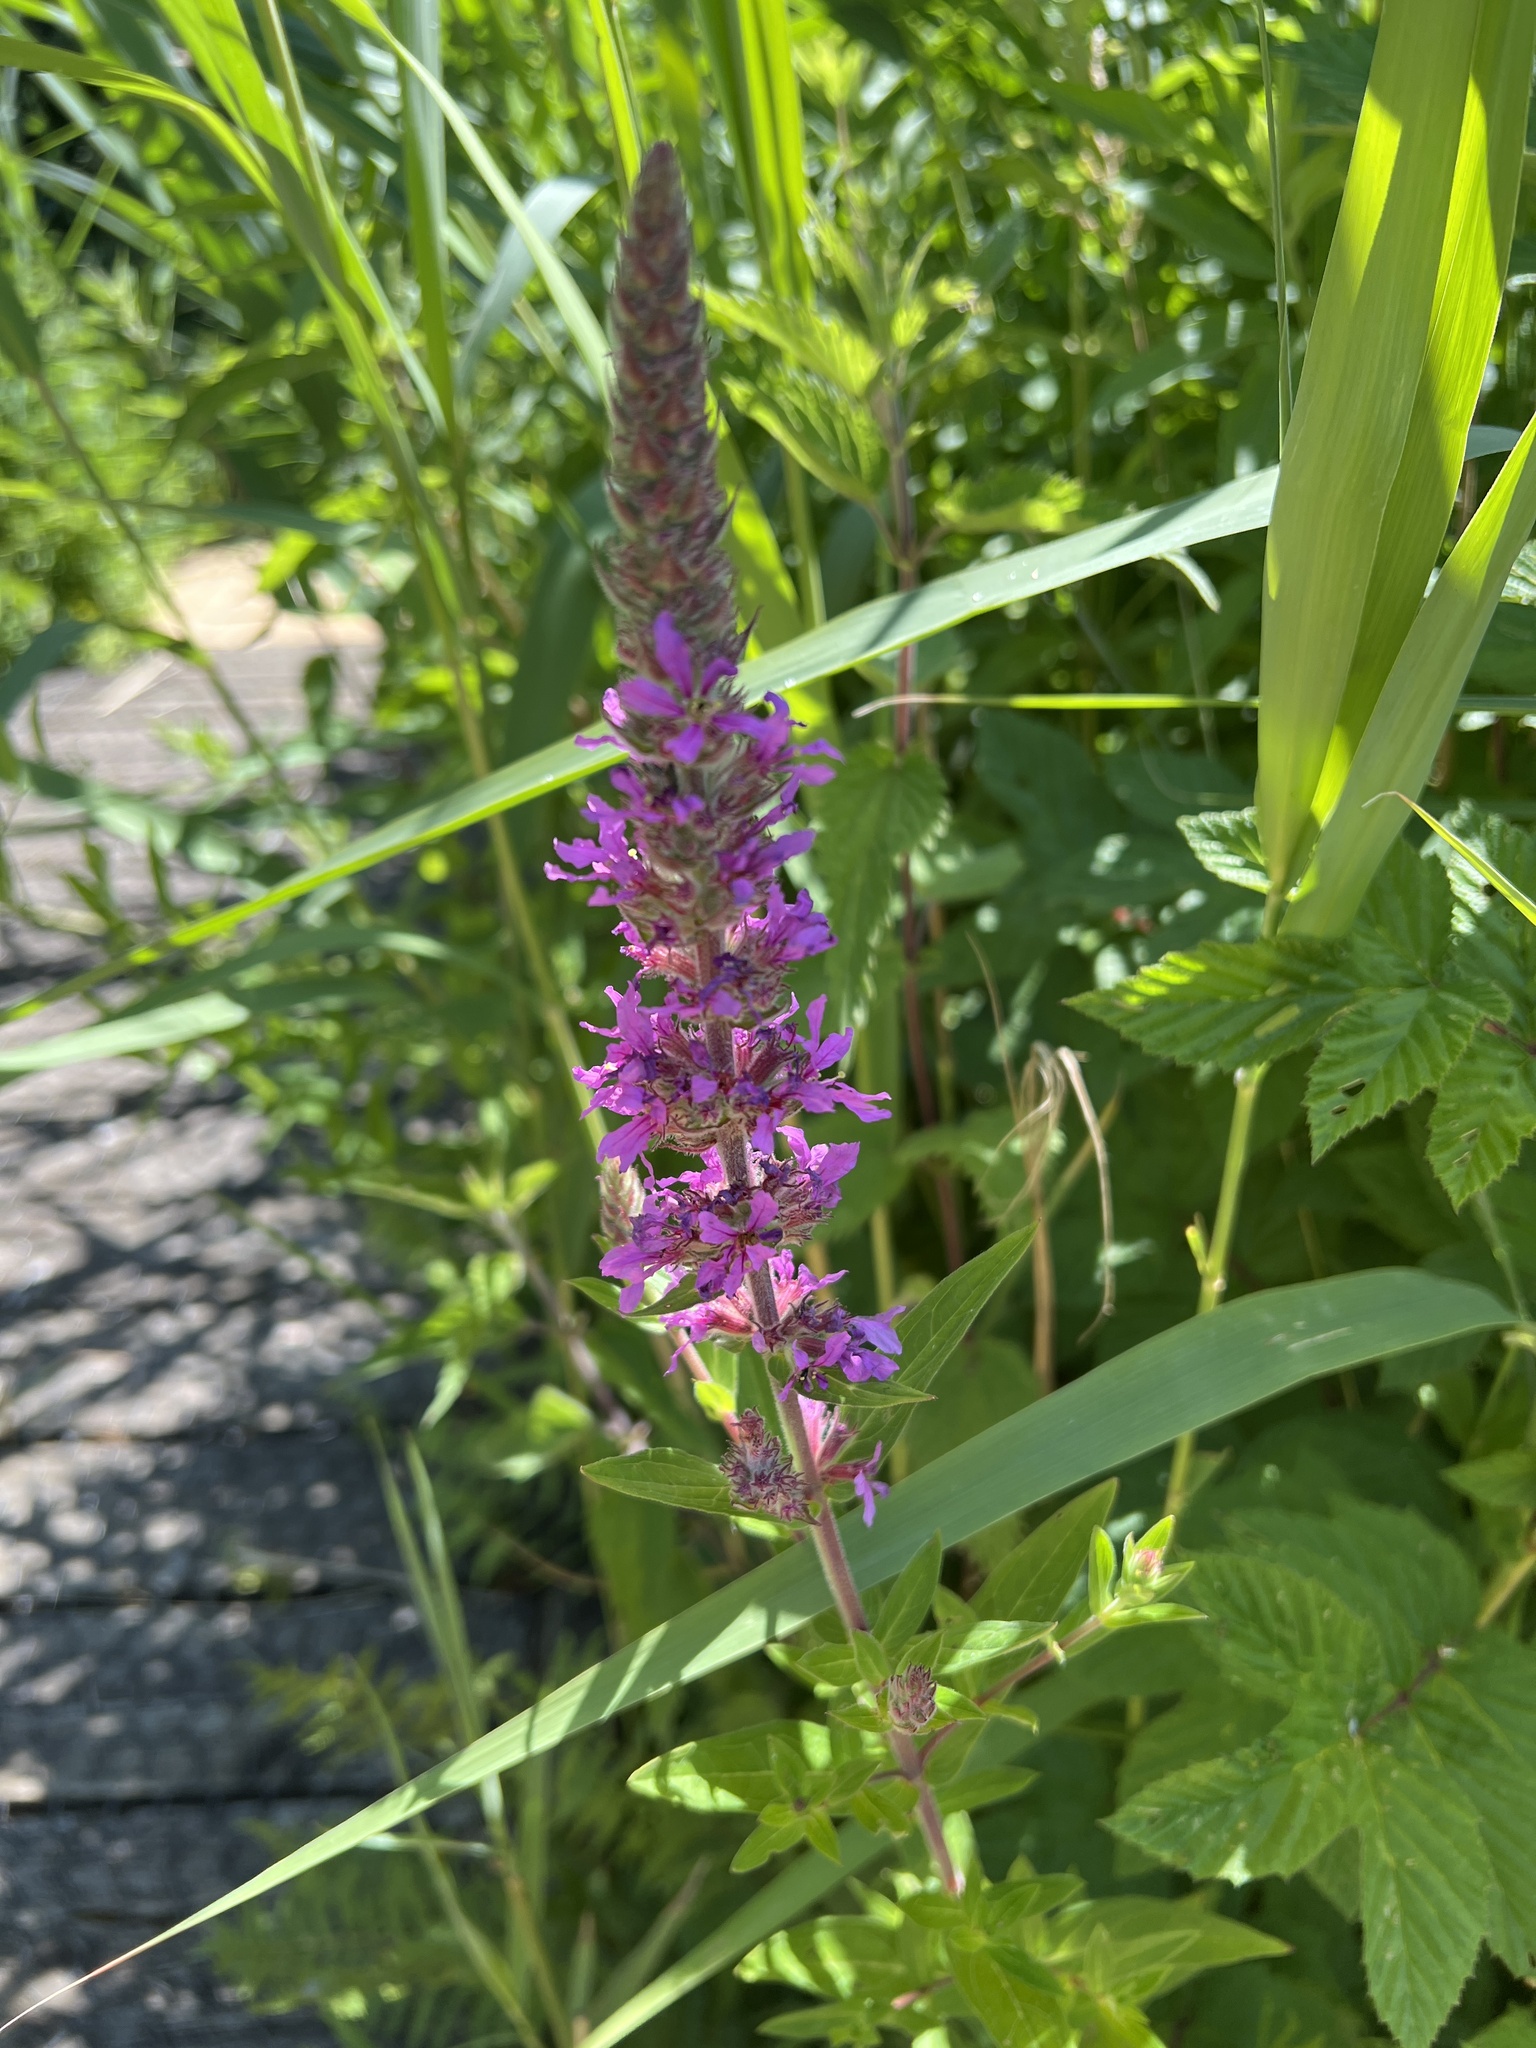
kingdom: Plantae
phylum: Tracheophyta
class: Magnoliopsida
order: Myrtales
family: Lythraceae
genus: Lythrum
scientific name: Lythrum salicaria
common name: Purple loosestrife
